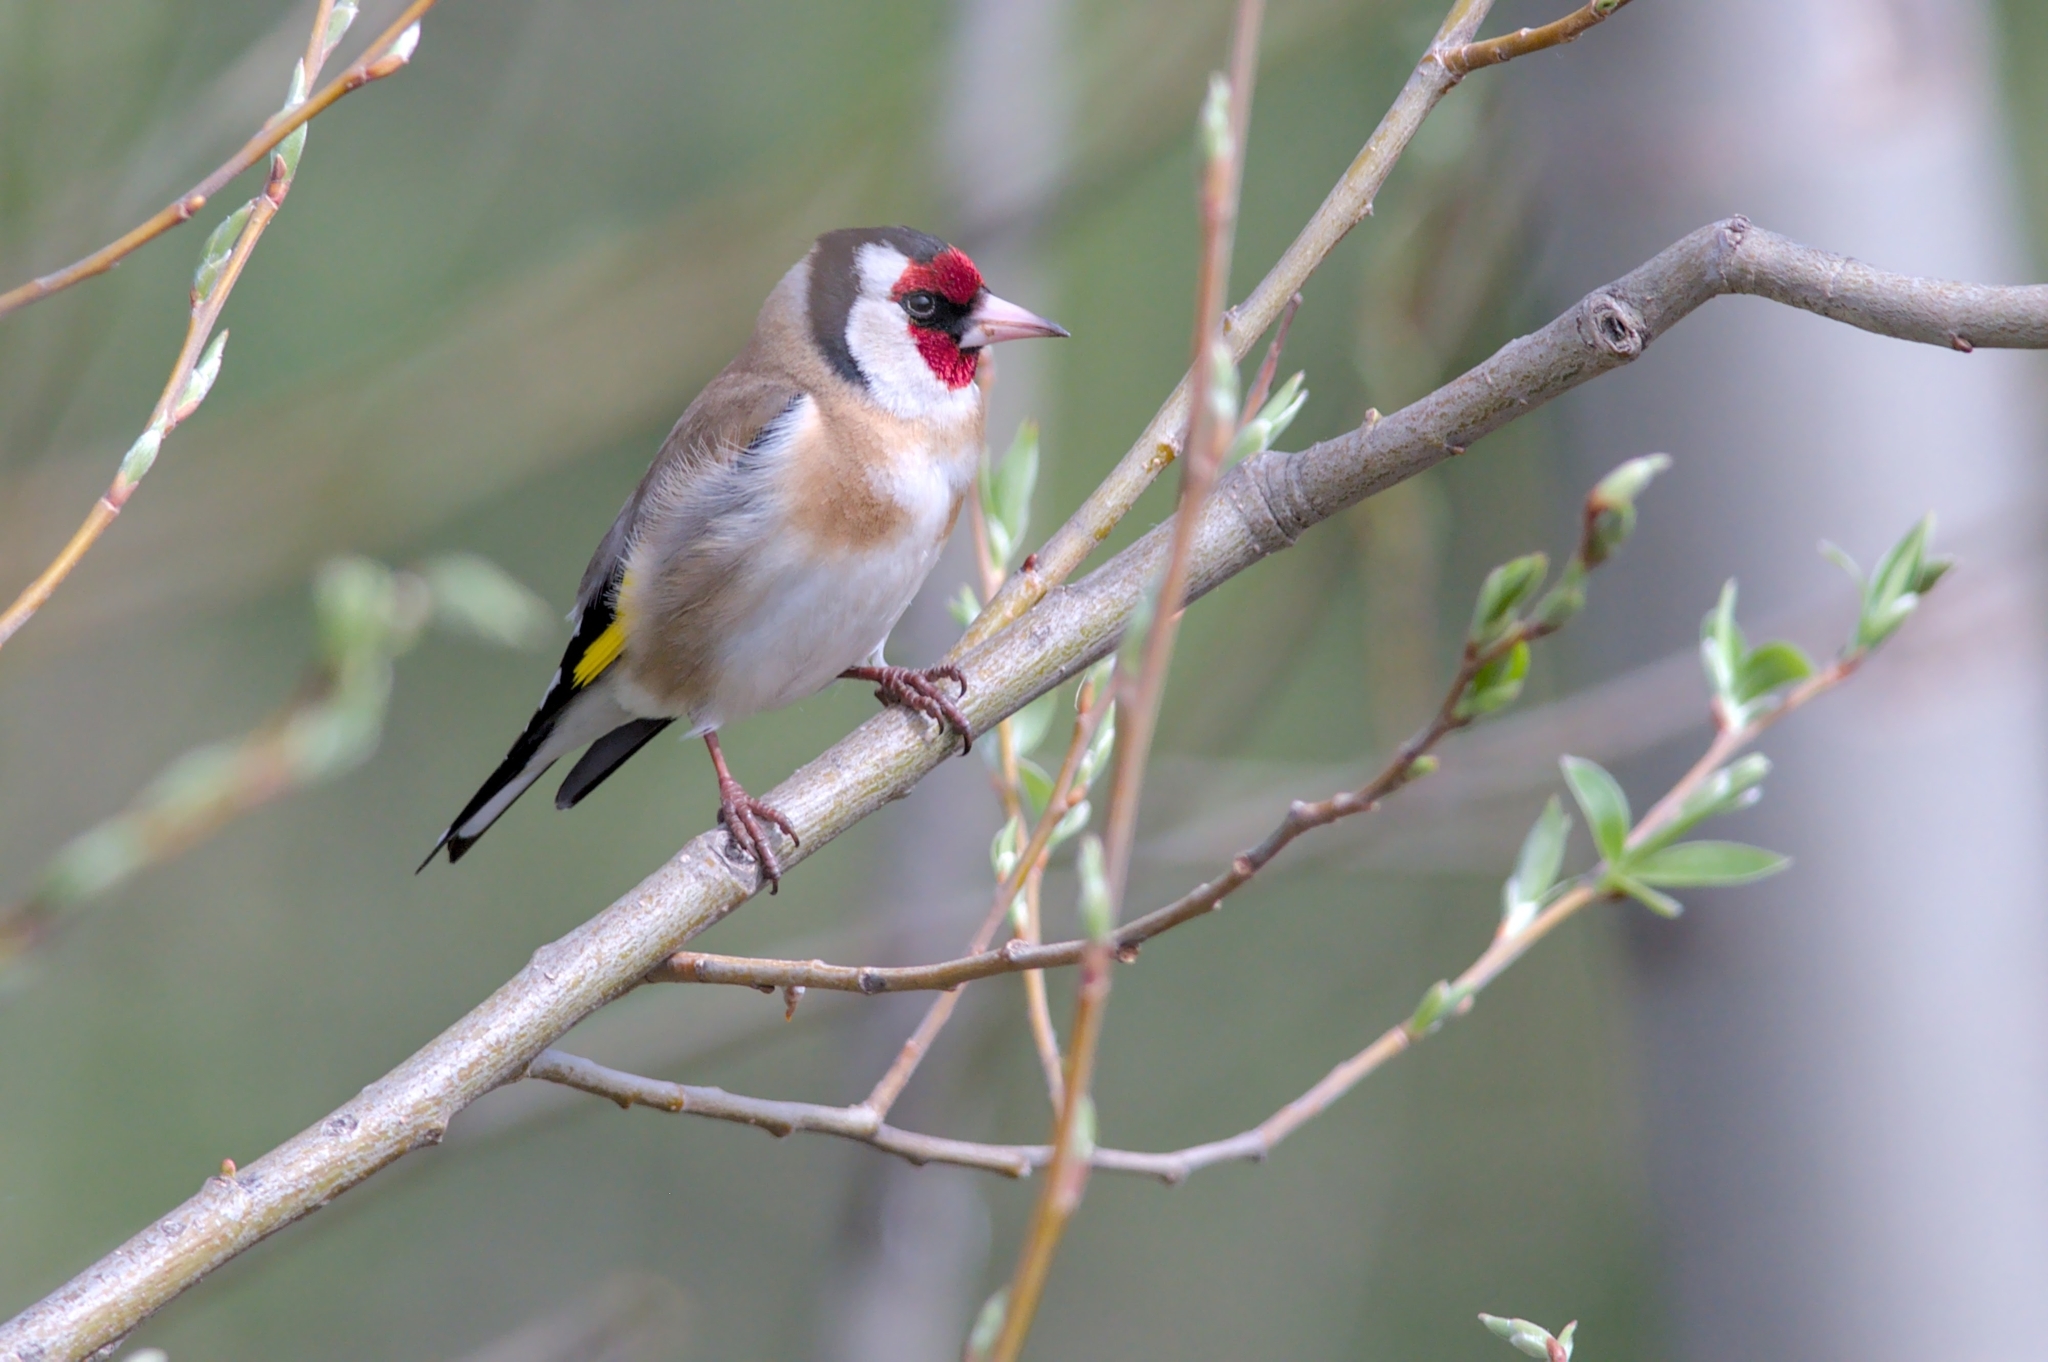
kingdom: Animalia
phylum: Chordata
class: Aves
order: Passeriformes
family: Fringillidae
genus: Carduelis
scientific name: Carduelis carduelis
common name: European goldfinch
